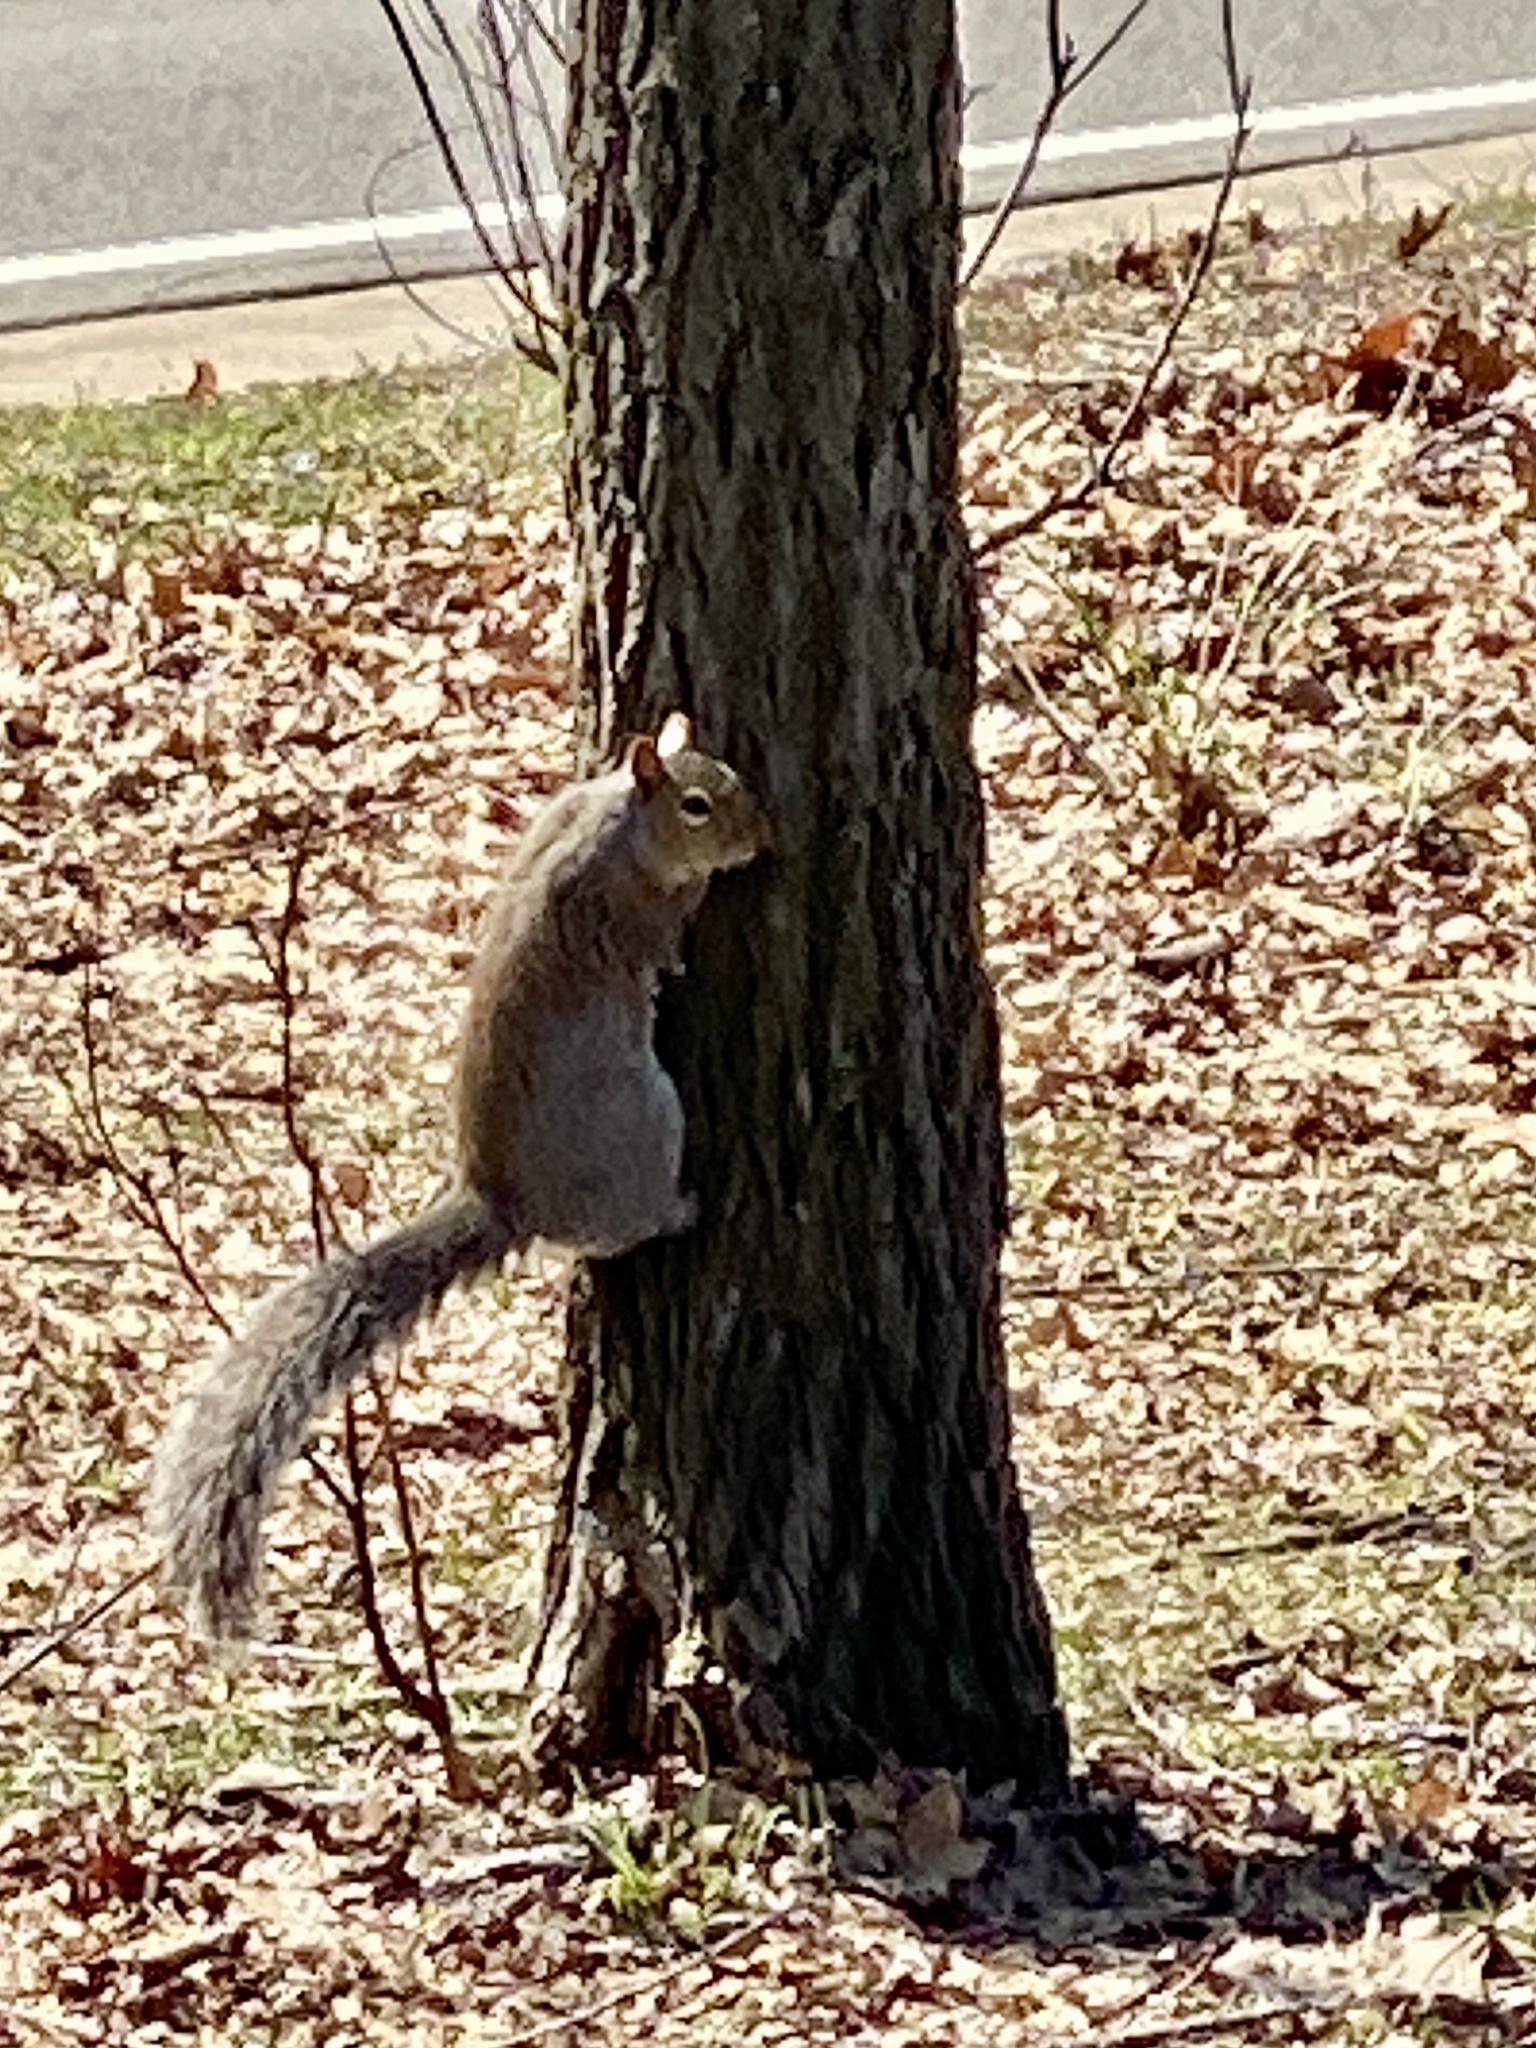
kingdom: Animalia
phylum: Chordata
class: Mammalia
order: Rodentia
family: Sciuridae
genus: Sciurus
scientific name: Sciurus carolinensis
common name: Eastern gray squirrel
